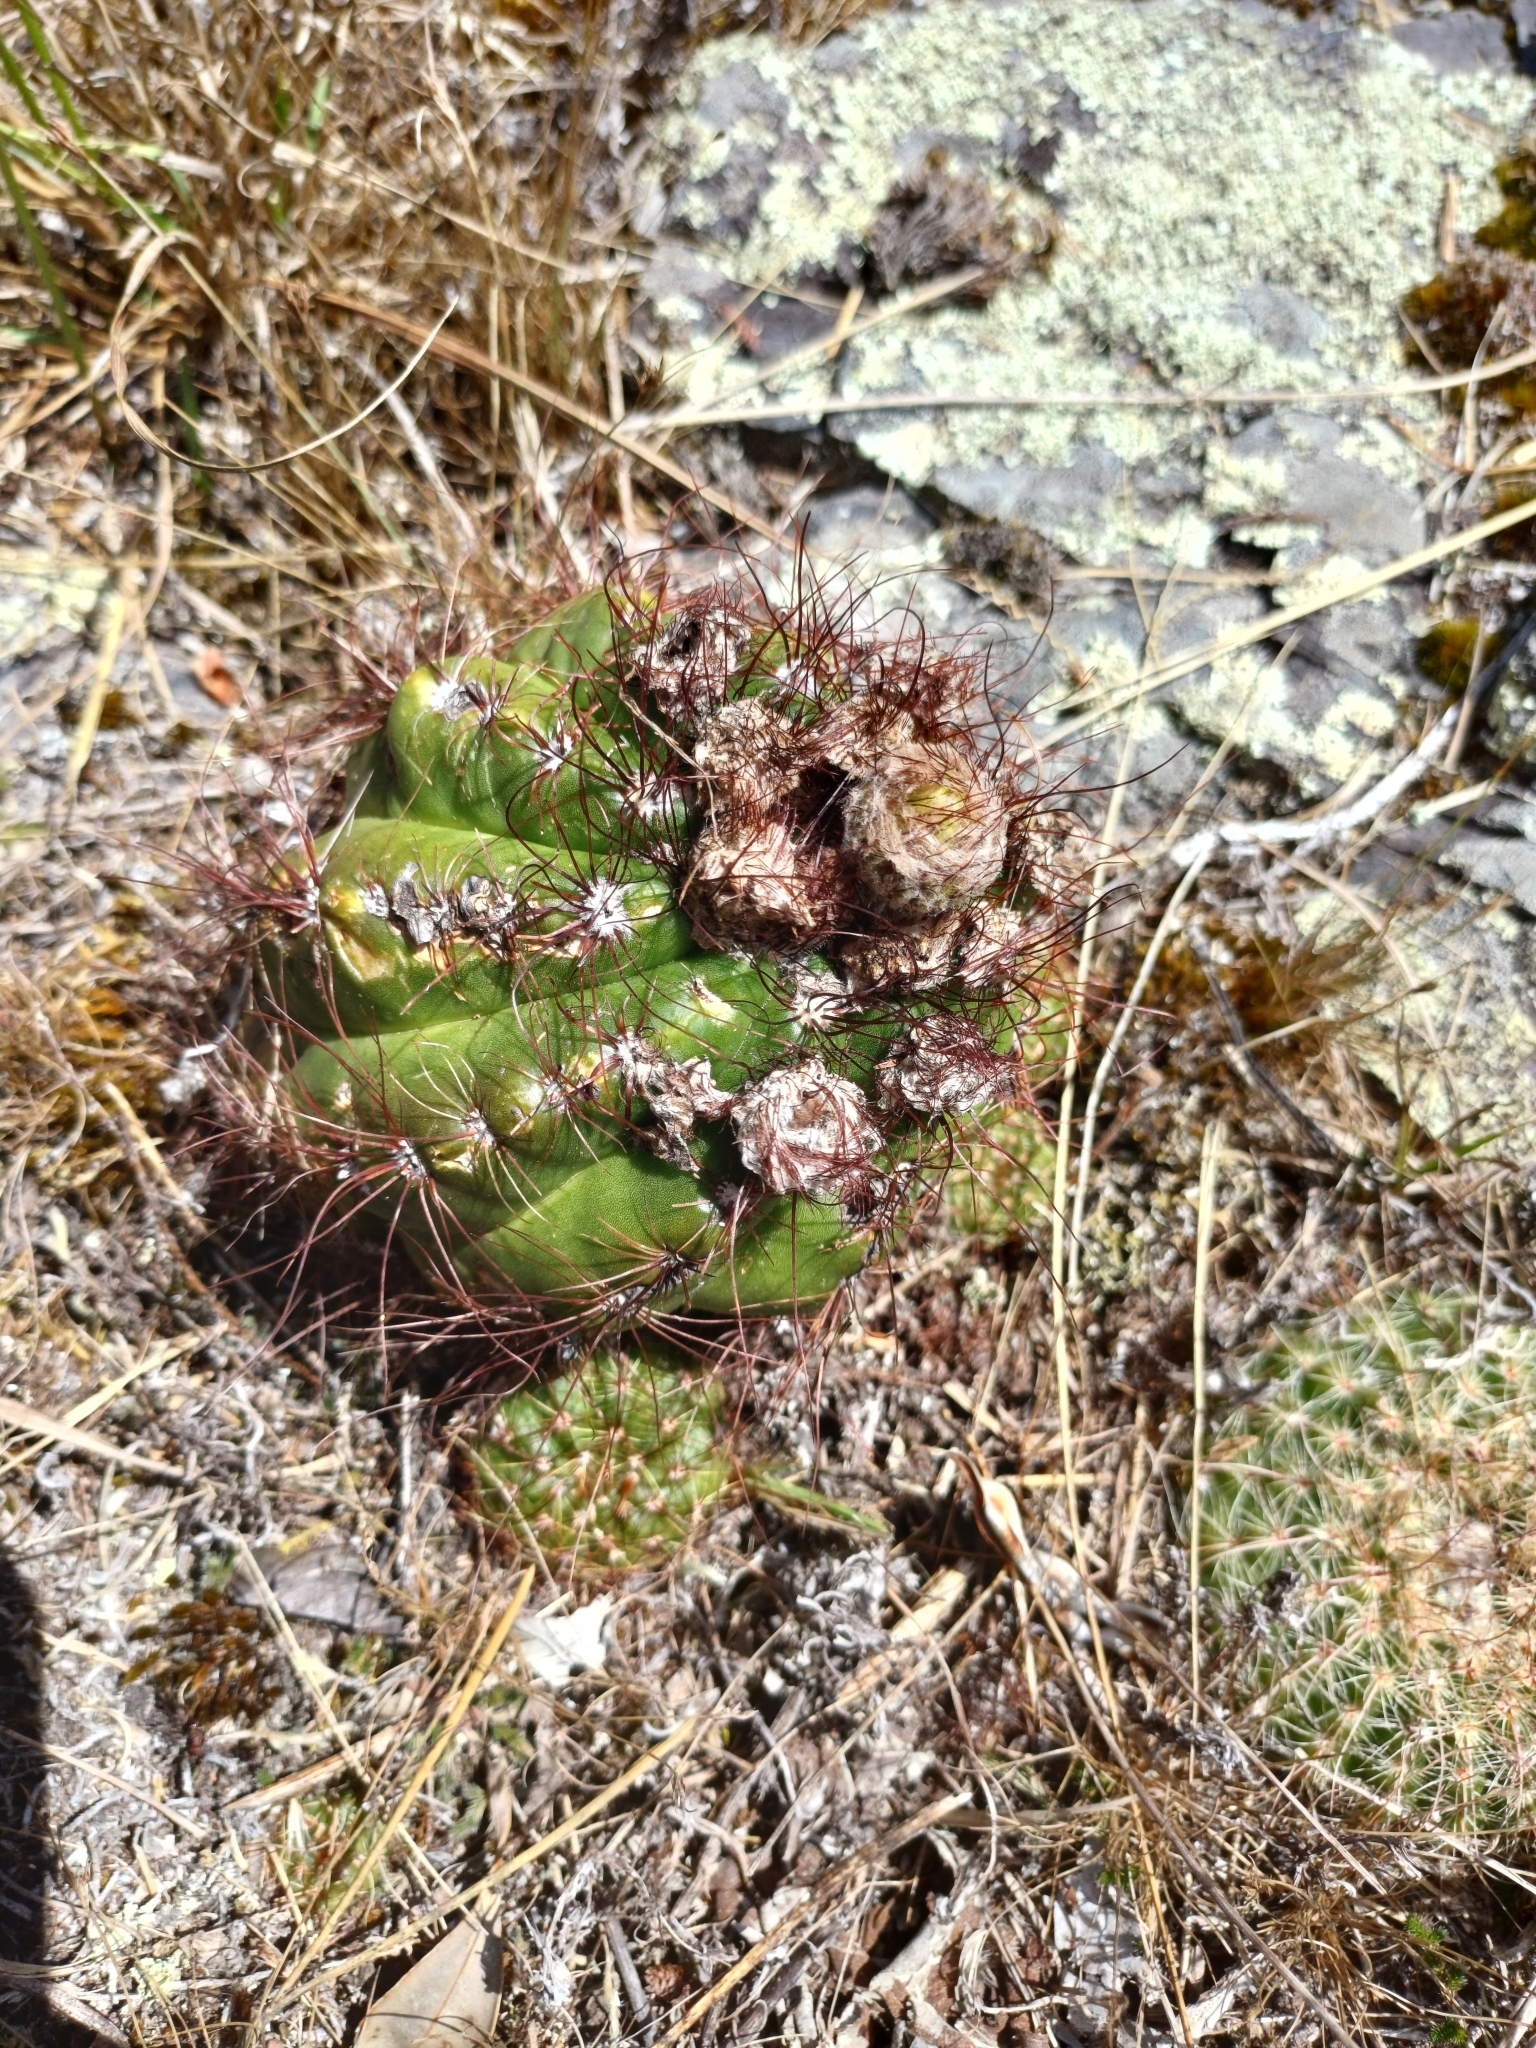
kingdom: Plantae
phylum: Tracheophyta
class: Magnoliopsida
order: Caryophyllales
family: Cactaceae
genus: Parodia
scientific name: Parodia ottonis
